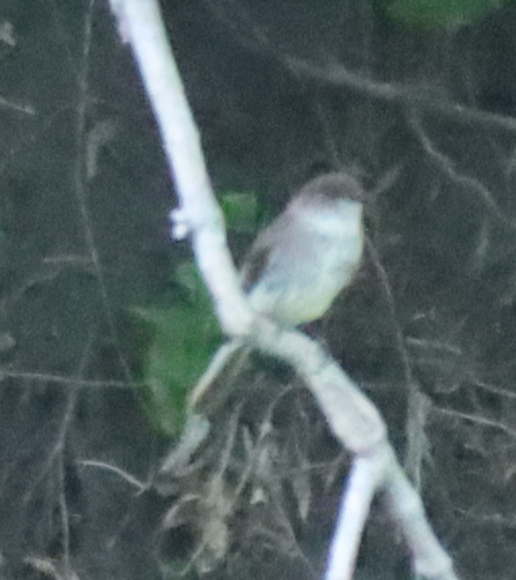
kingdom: Animalia
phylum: Chordata
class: Aves
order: Passeriformes
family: Tyrannidae
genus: Sayornis
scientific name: Sayornis phoebe
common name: Eastern phoebe
